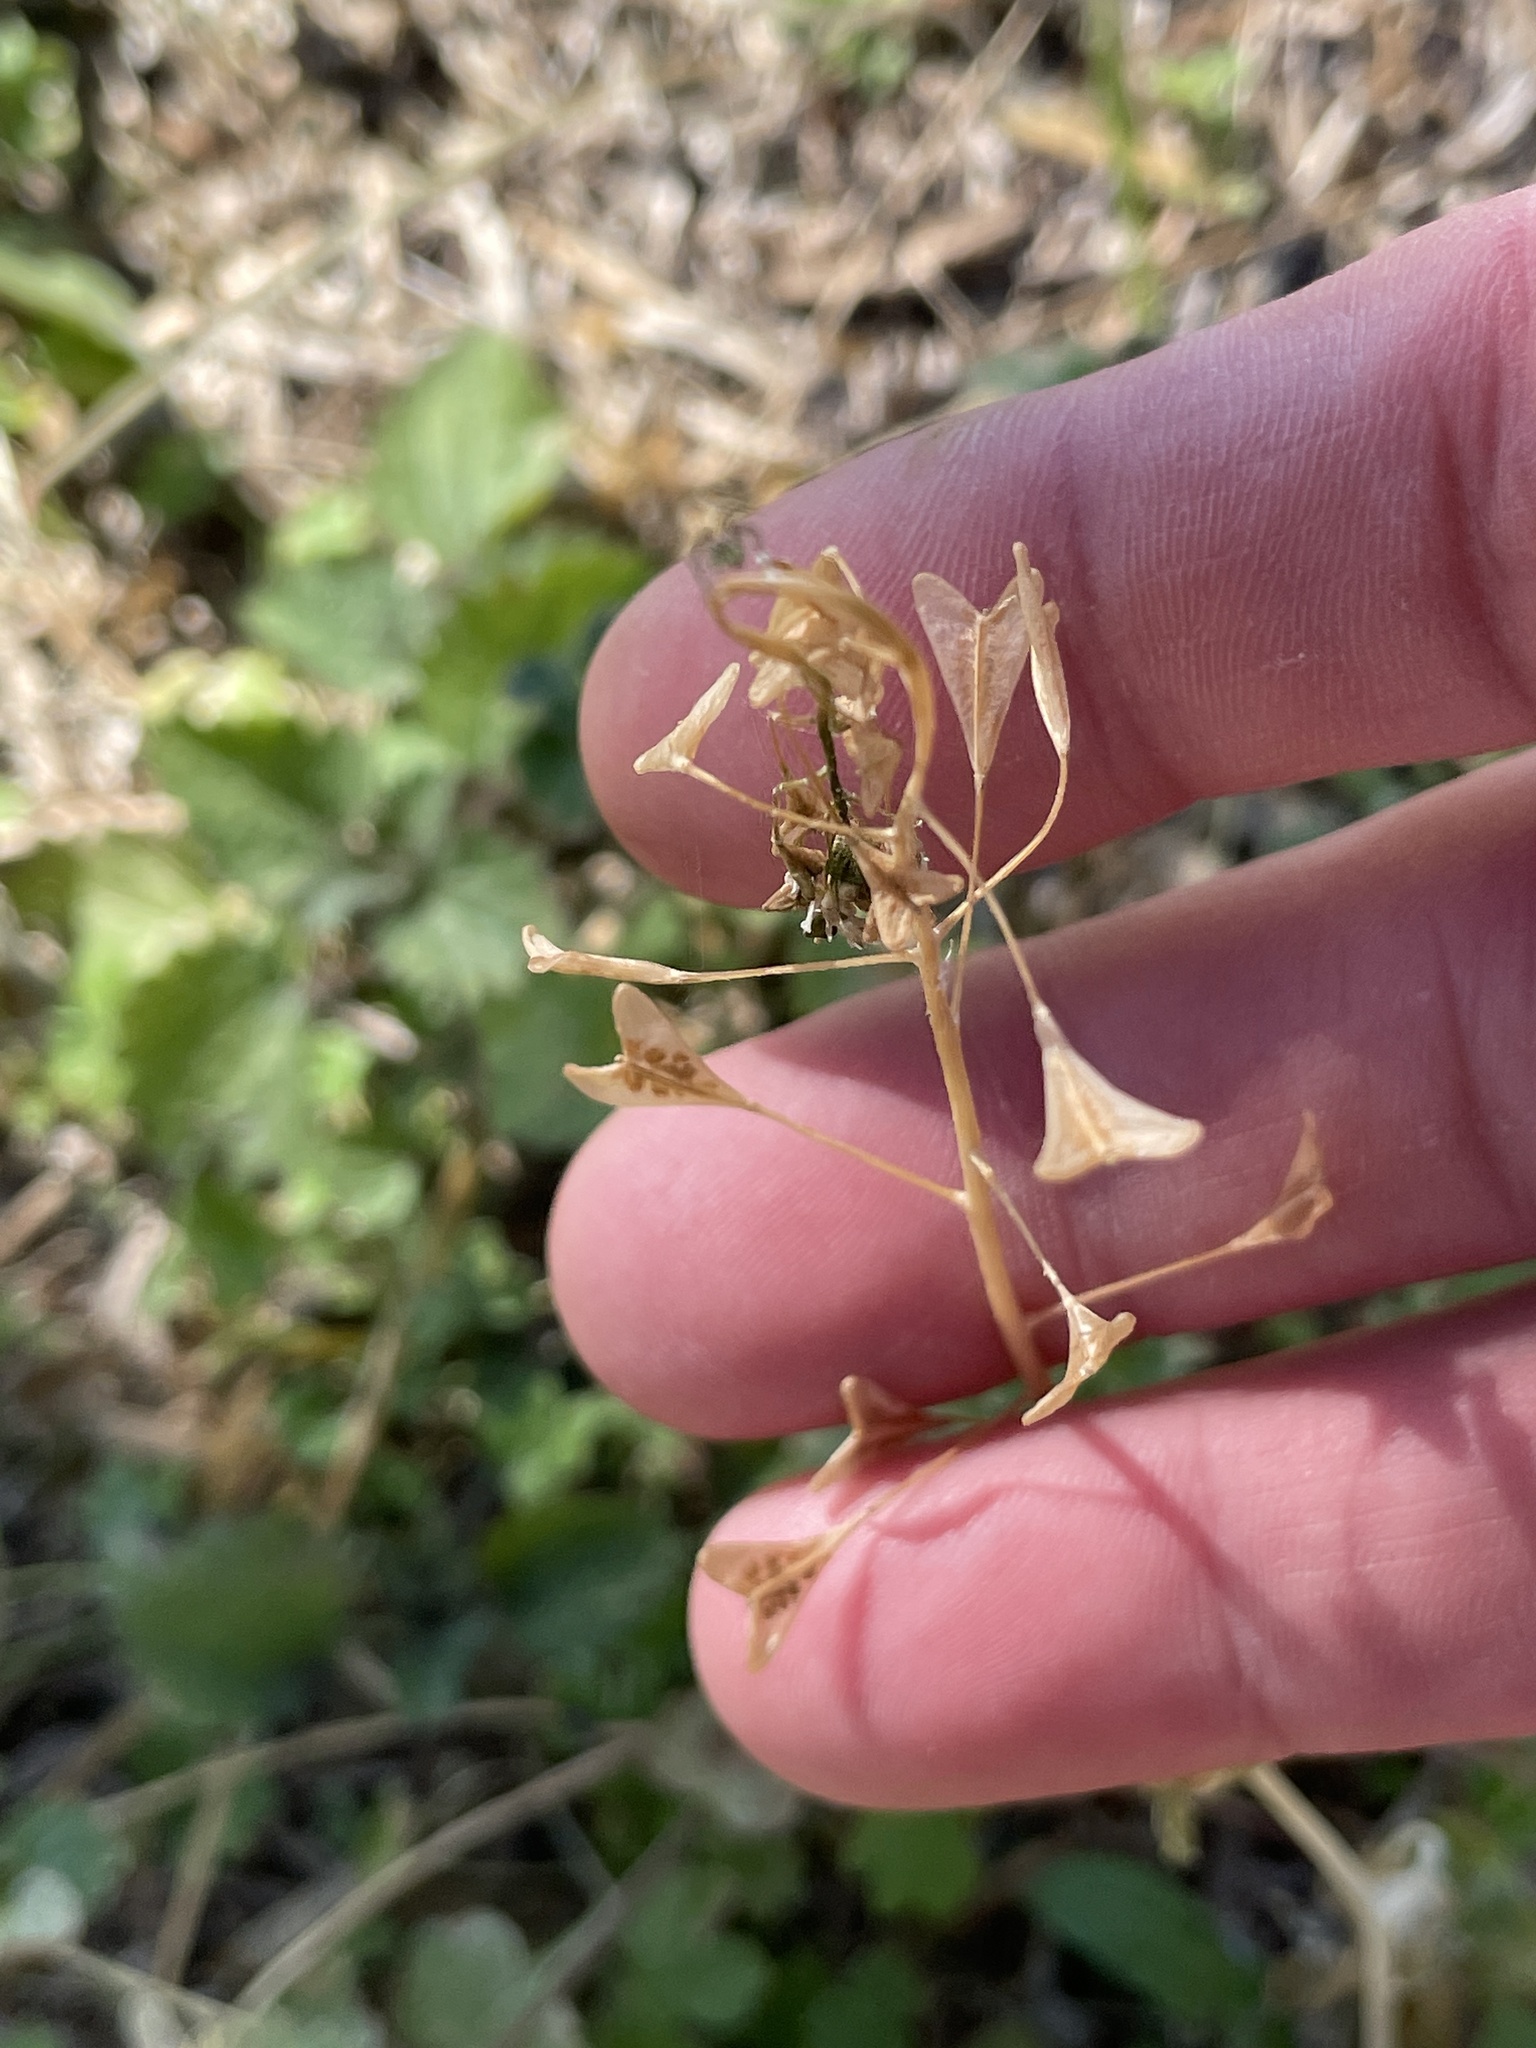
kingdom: Plantae
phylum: Tracheophyta
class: Magnoliopsida
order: Brassicales
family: Brassicaceae
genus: Capsella
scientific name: Capsella bursa-pastoris
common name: Shepherd's purse
